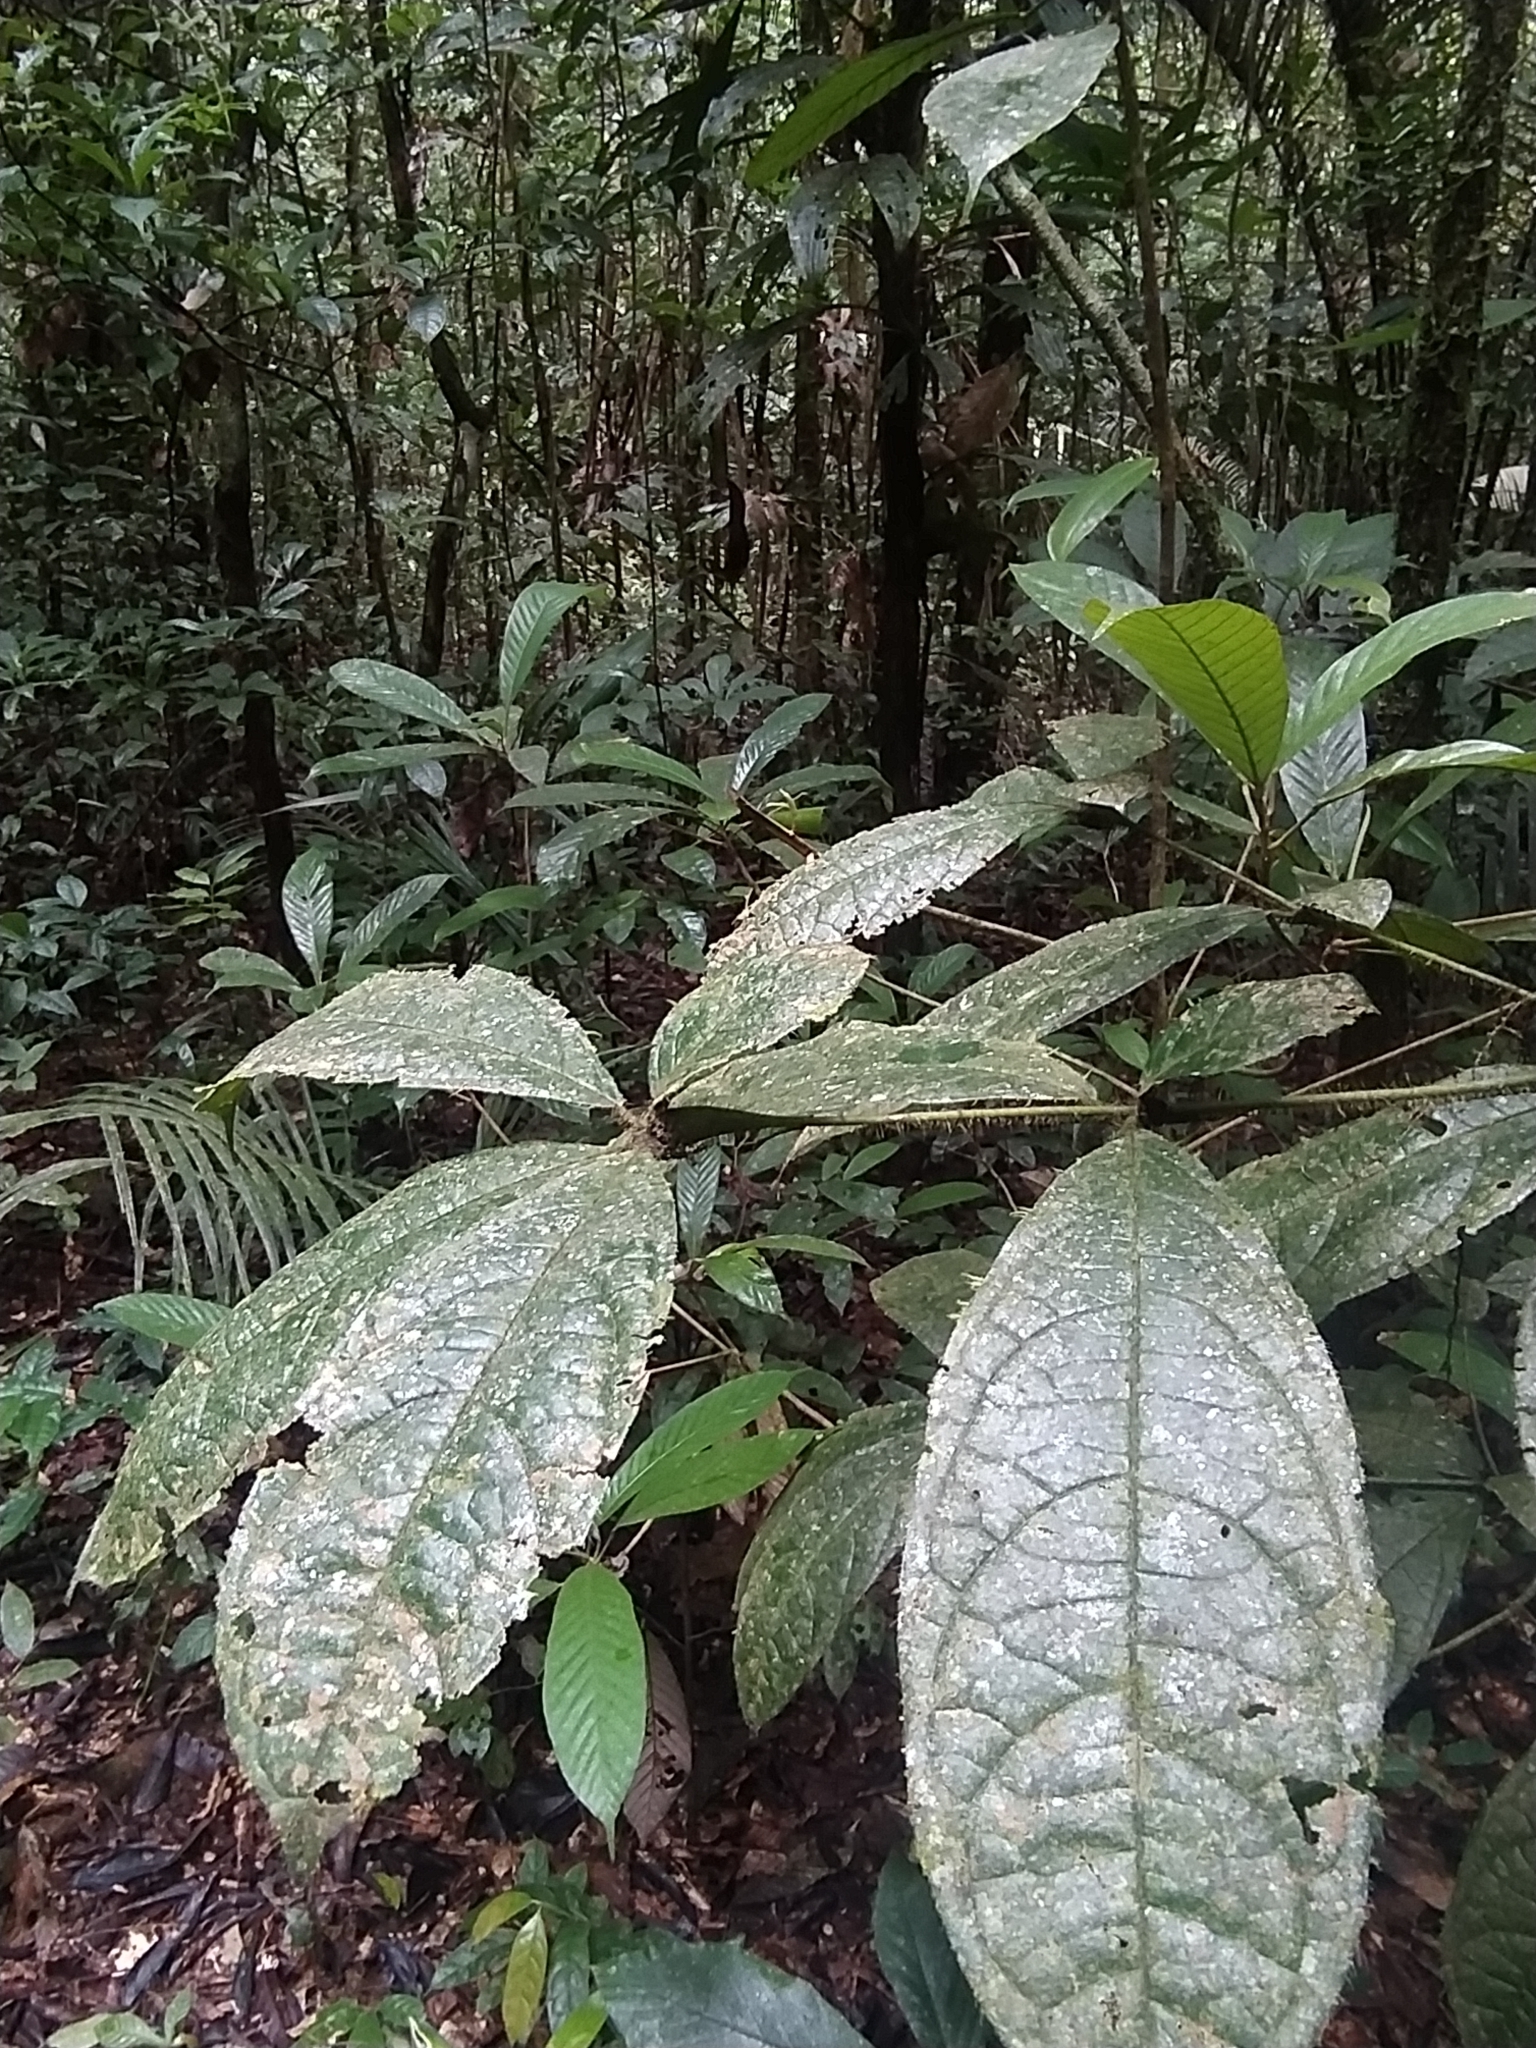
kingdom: Plantae
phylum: Tracheophyta
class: Magnoliopsida
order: Boraginales
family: Cordiaceae
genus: Cordia
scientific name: Cordia nodosa
